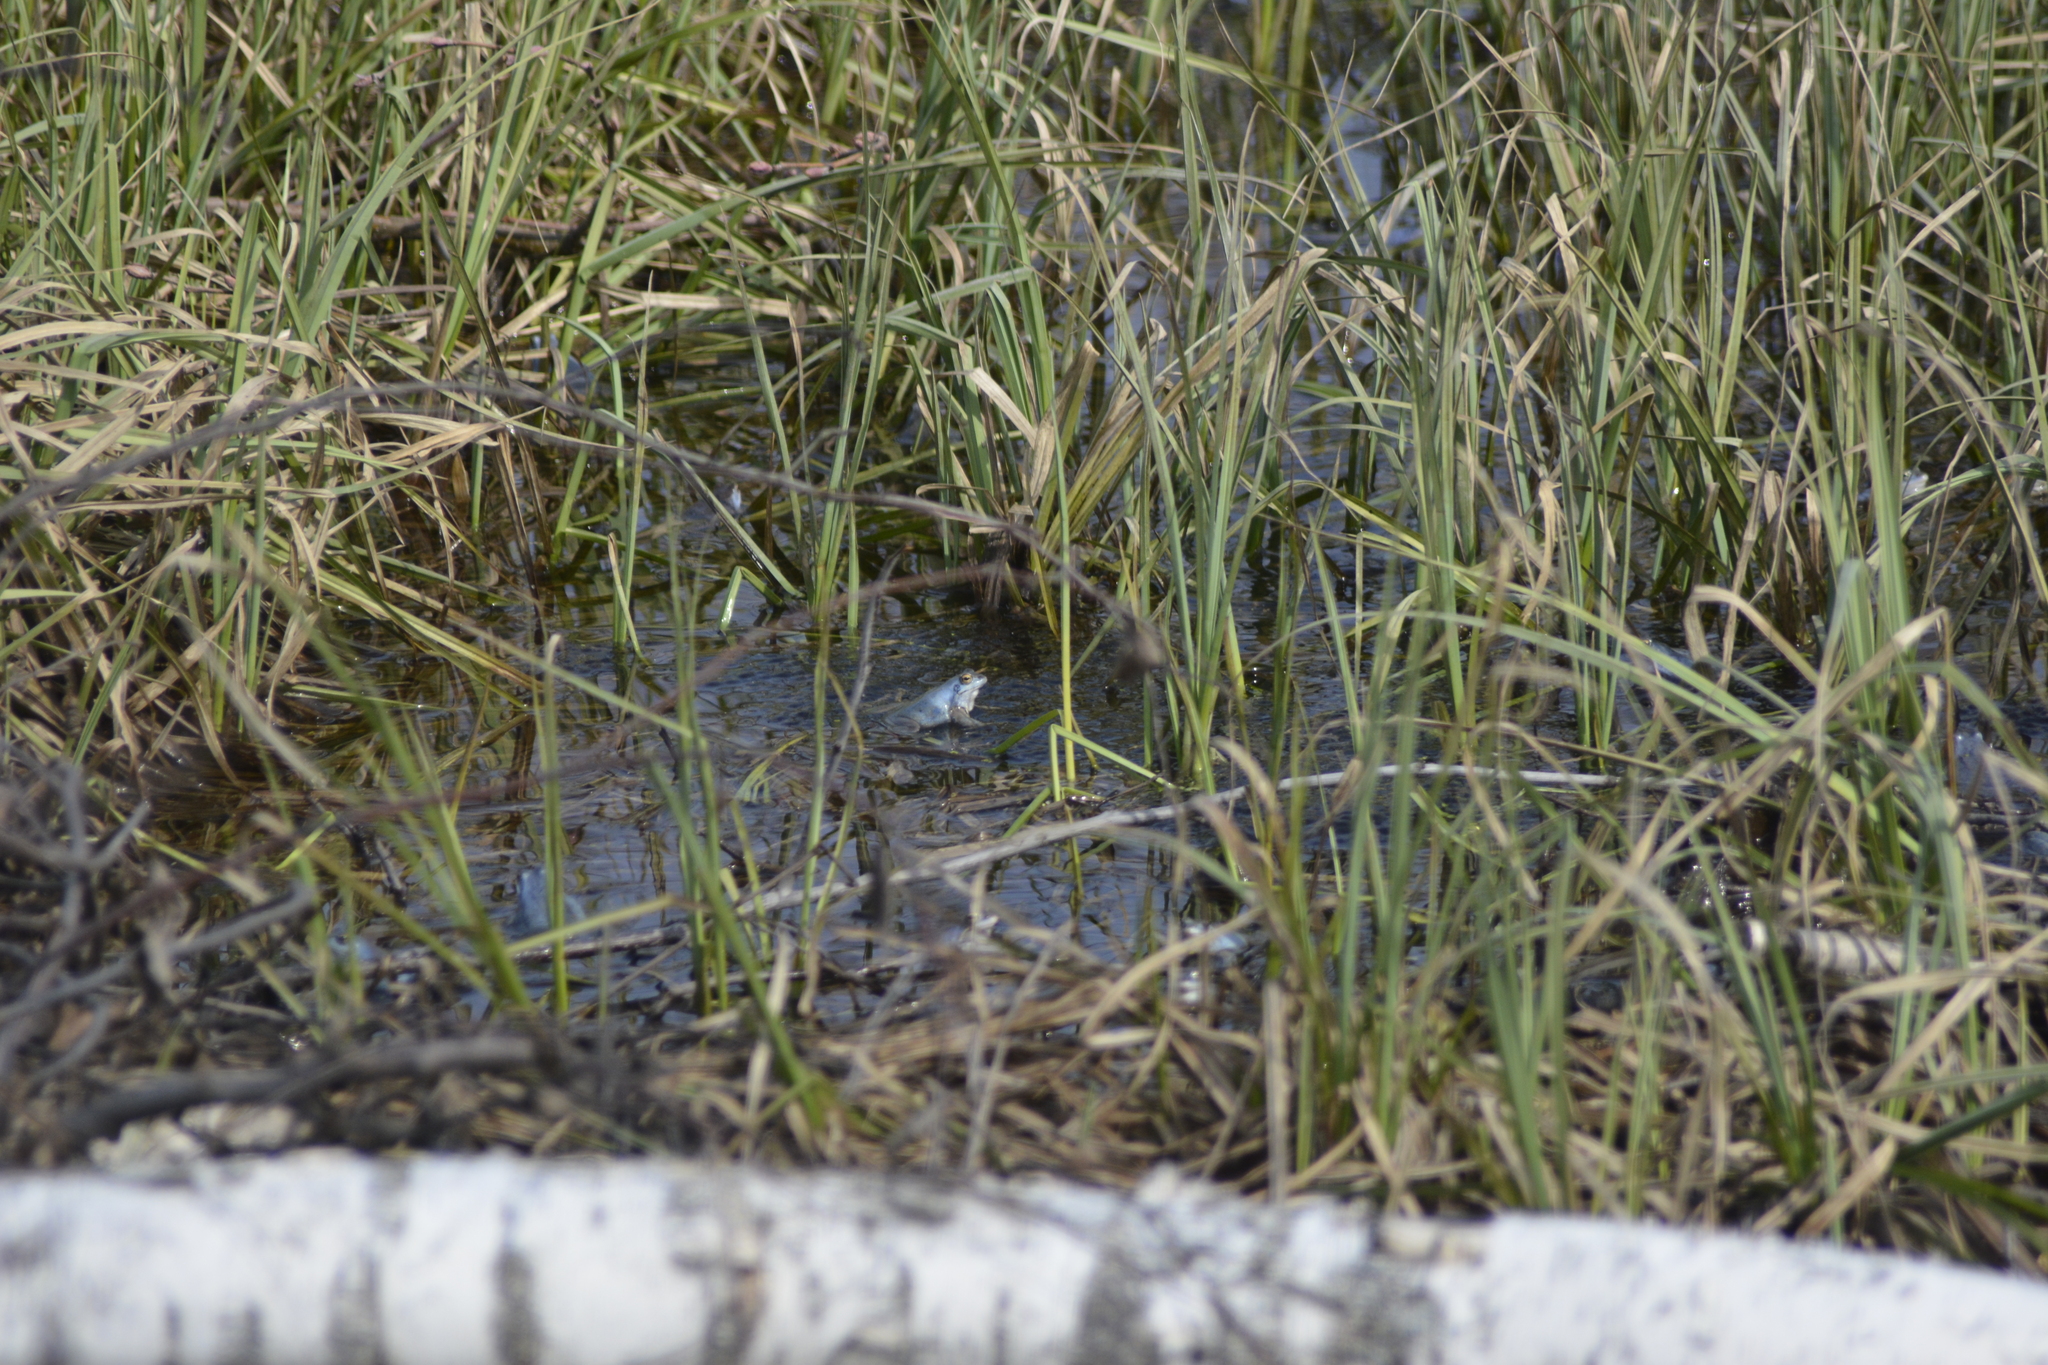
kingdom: Animalia
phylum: Chordata
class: Amphibia
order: Anura
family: Ranidae
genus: Rana
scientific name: Rana arvalis
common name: Moor frog
